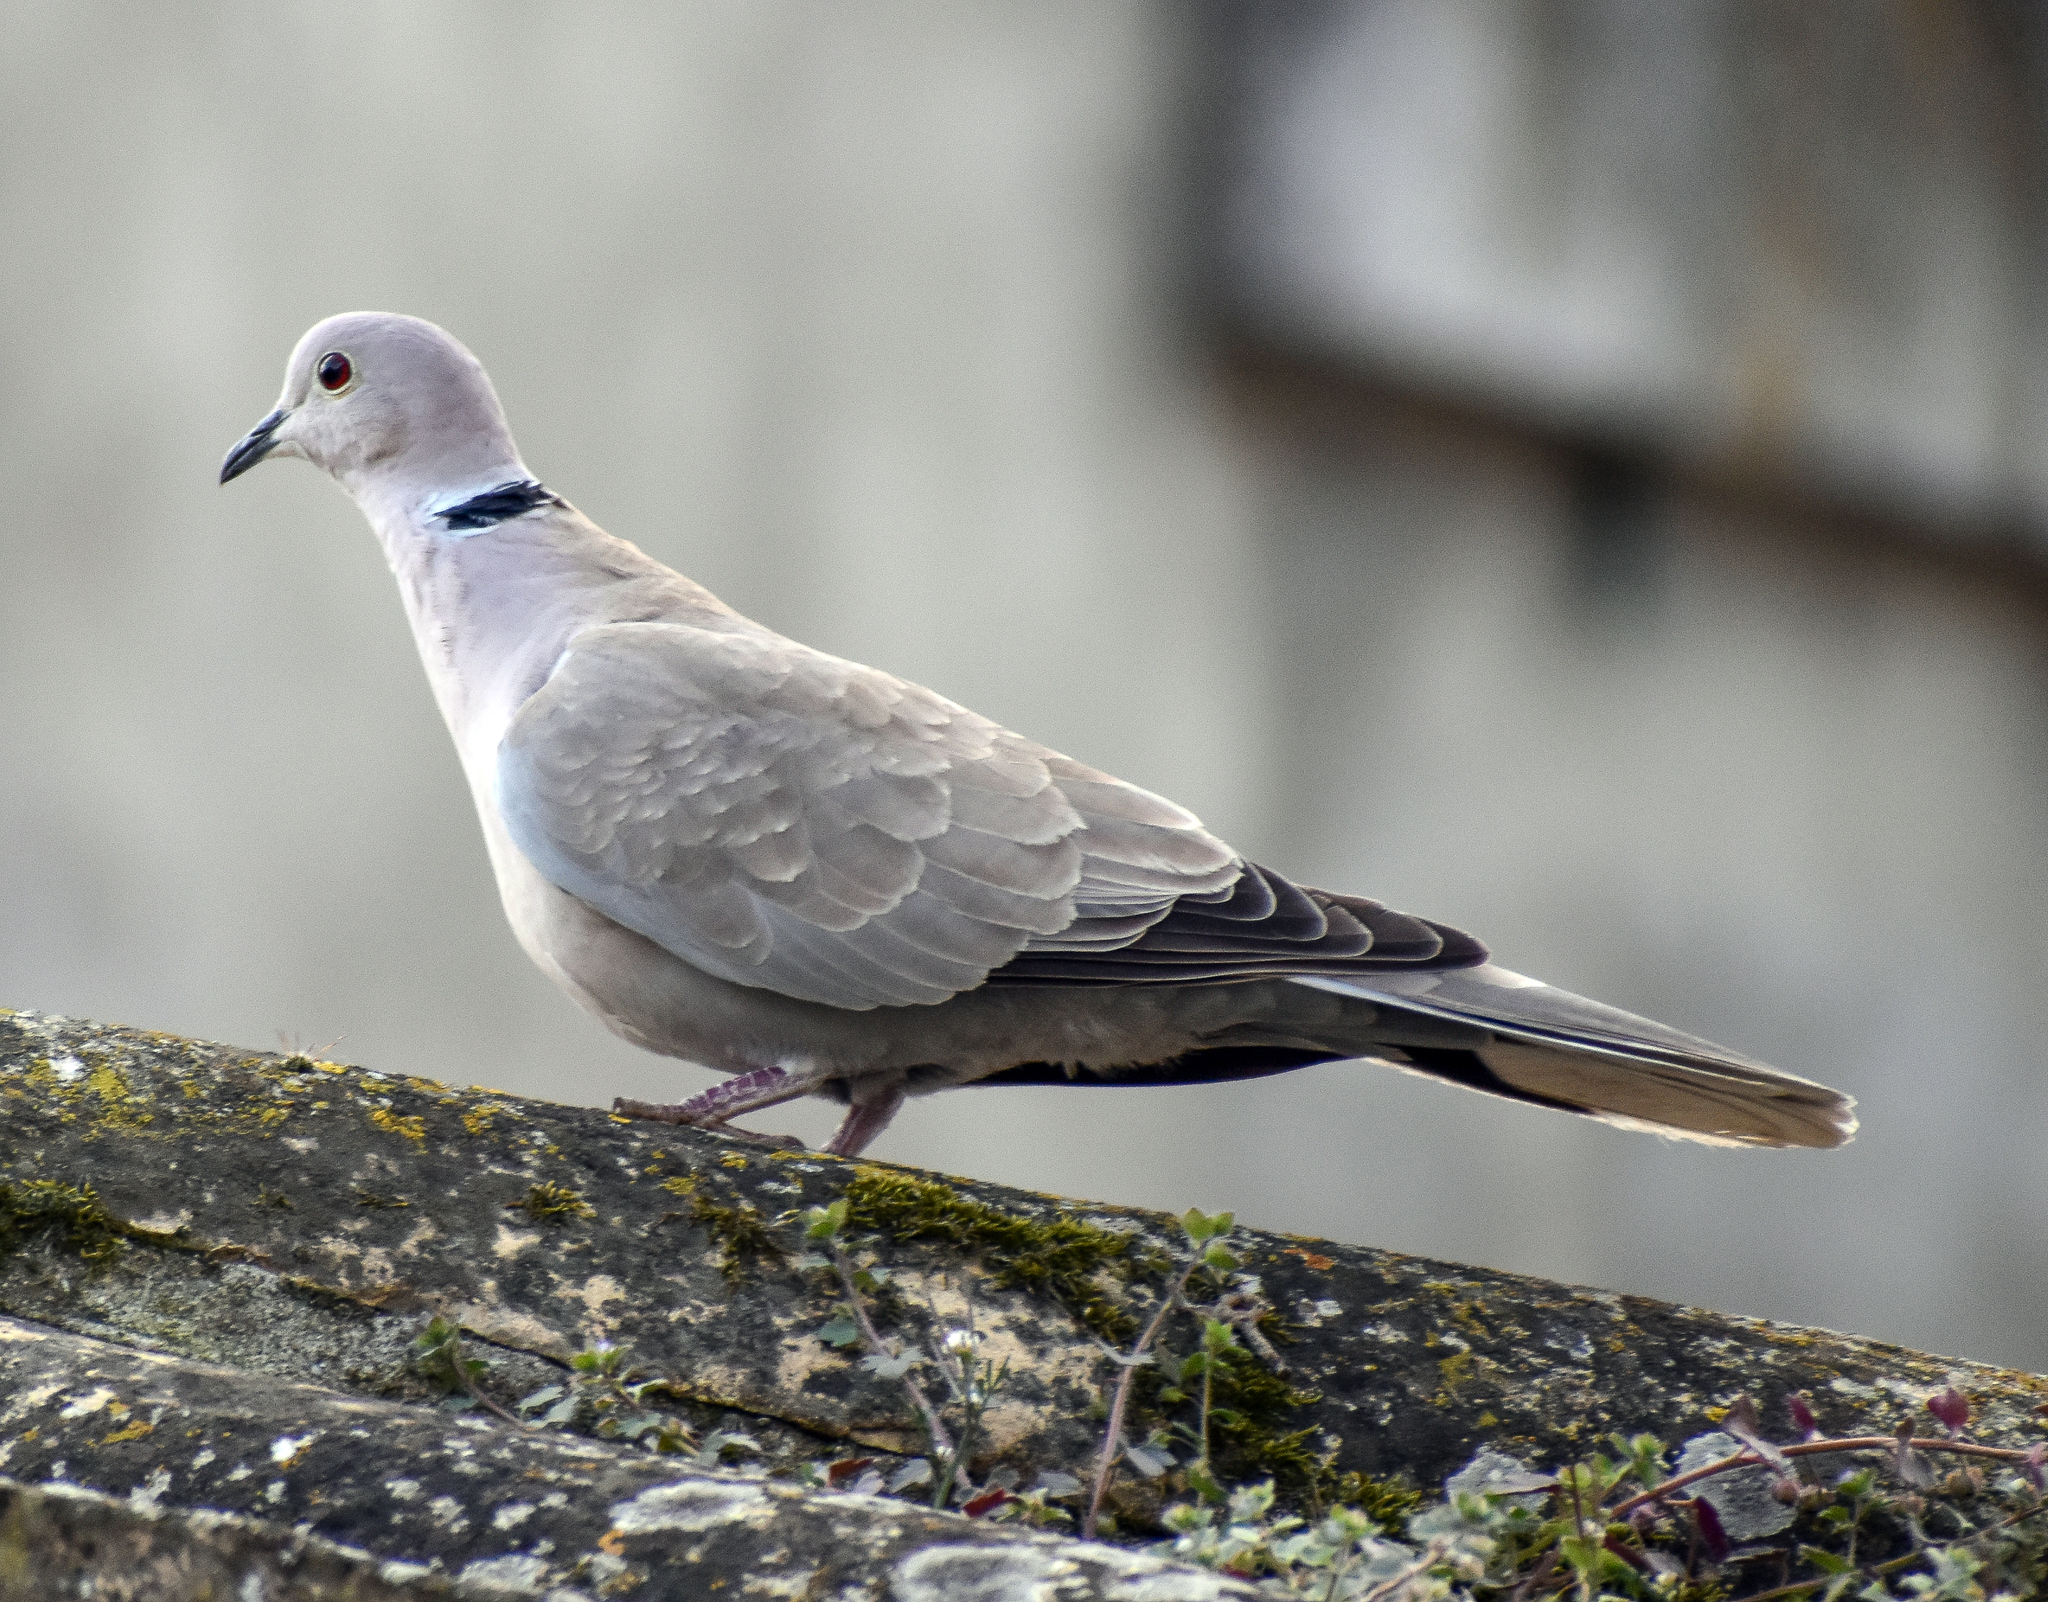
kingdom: Animalia
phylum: Chordata
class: Aves
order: Columbiformes
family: Columbidae
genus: Streptopelia
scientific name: Streptopelia decaocto
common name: Eurasian collared dove
